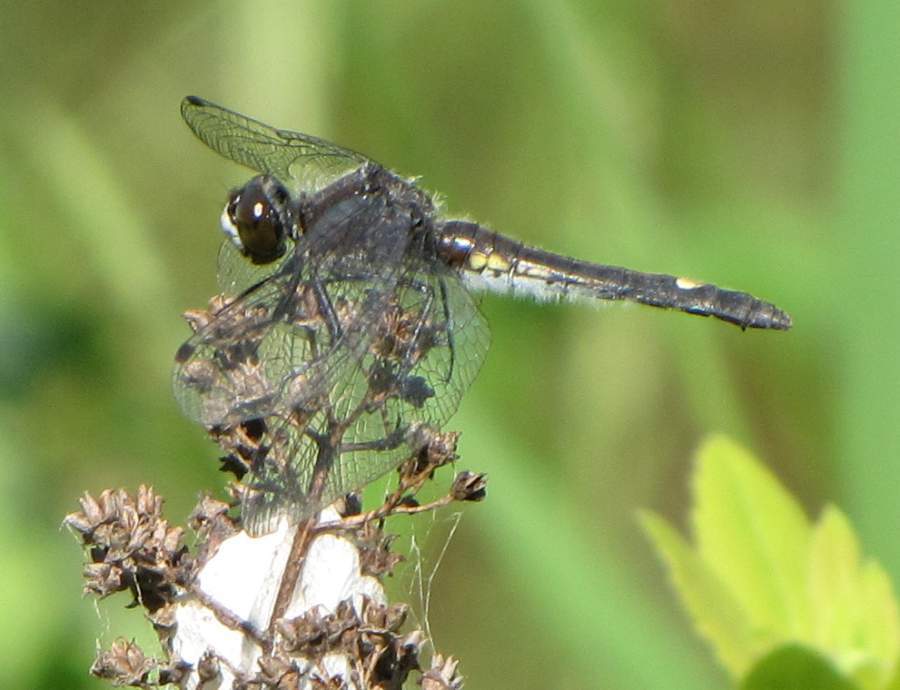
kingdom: Animalia
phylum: Arthropoda
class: Insecta
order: Odonata
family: Libellulidae
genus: Leucorrhinia
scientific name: Leucorrhinia intacta
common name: Dot-tailed whiteface
